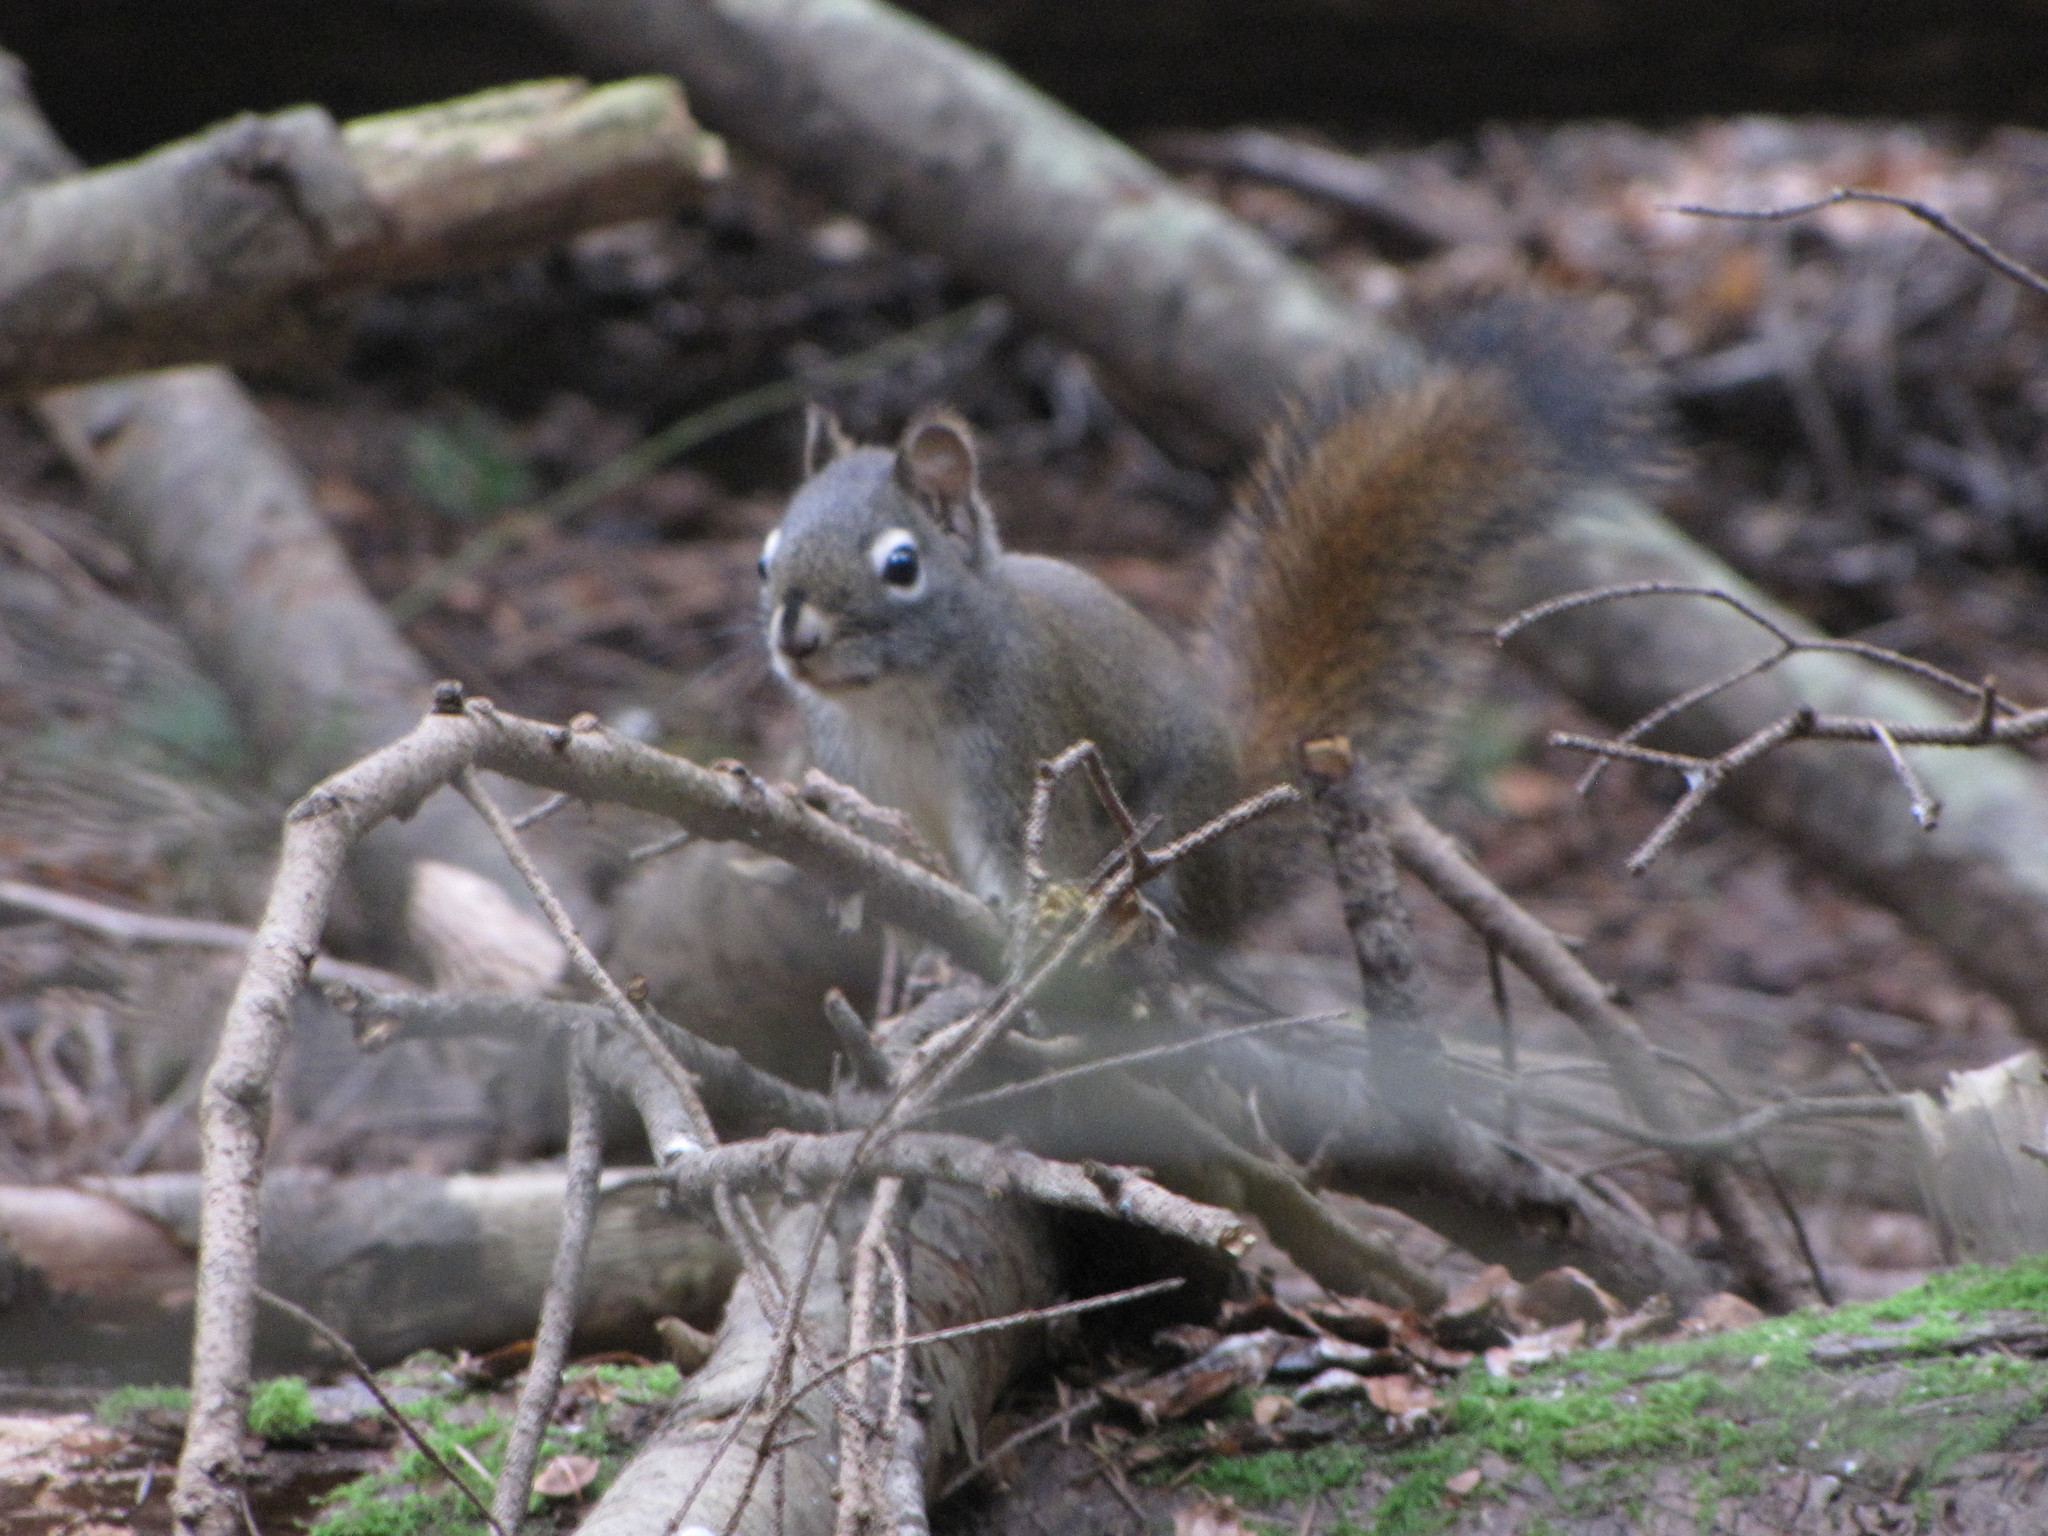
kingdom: Animalia
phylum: Chordata
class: Mammalia
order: Rodentia
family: Sciuridae
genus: Tamiasciurus
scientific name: Tamiasciurus hudsonicus
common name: Red squirrel
